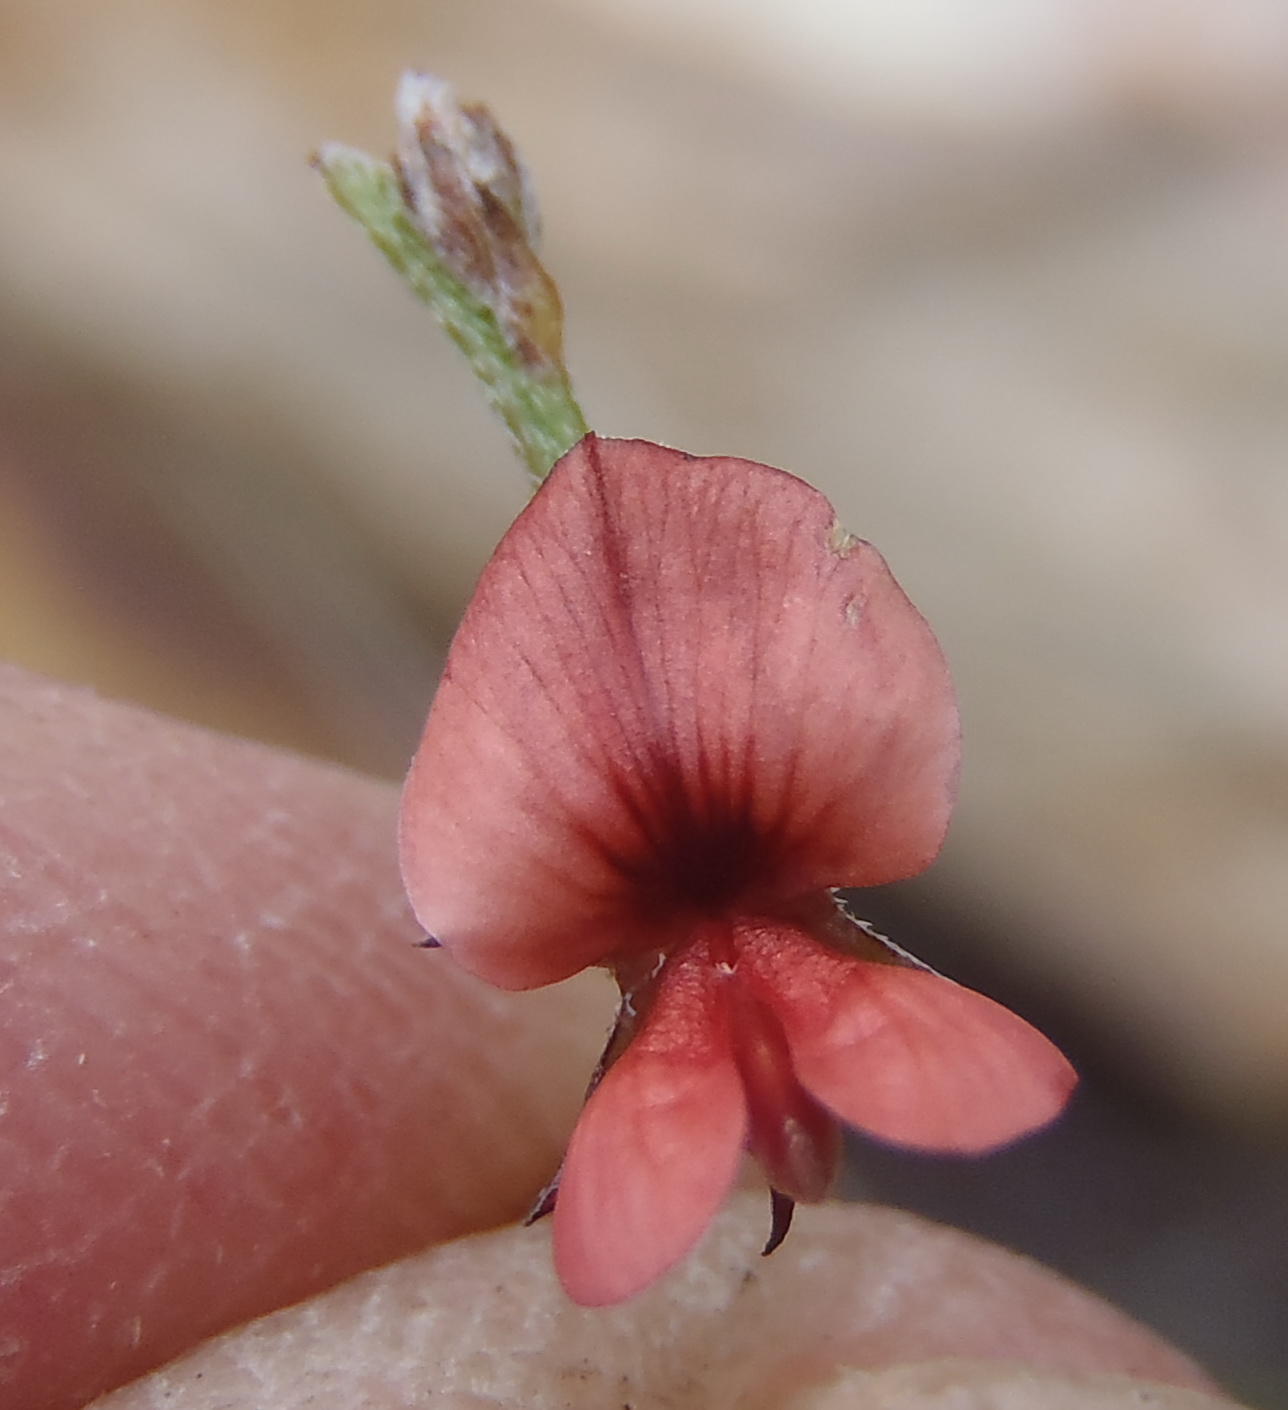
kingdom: Plantae
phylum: Tracheophyta
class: Magnoliopsida
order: Fabales
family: Fabaceae
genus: Indigofera
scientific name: Indigofera leptocarpa
